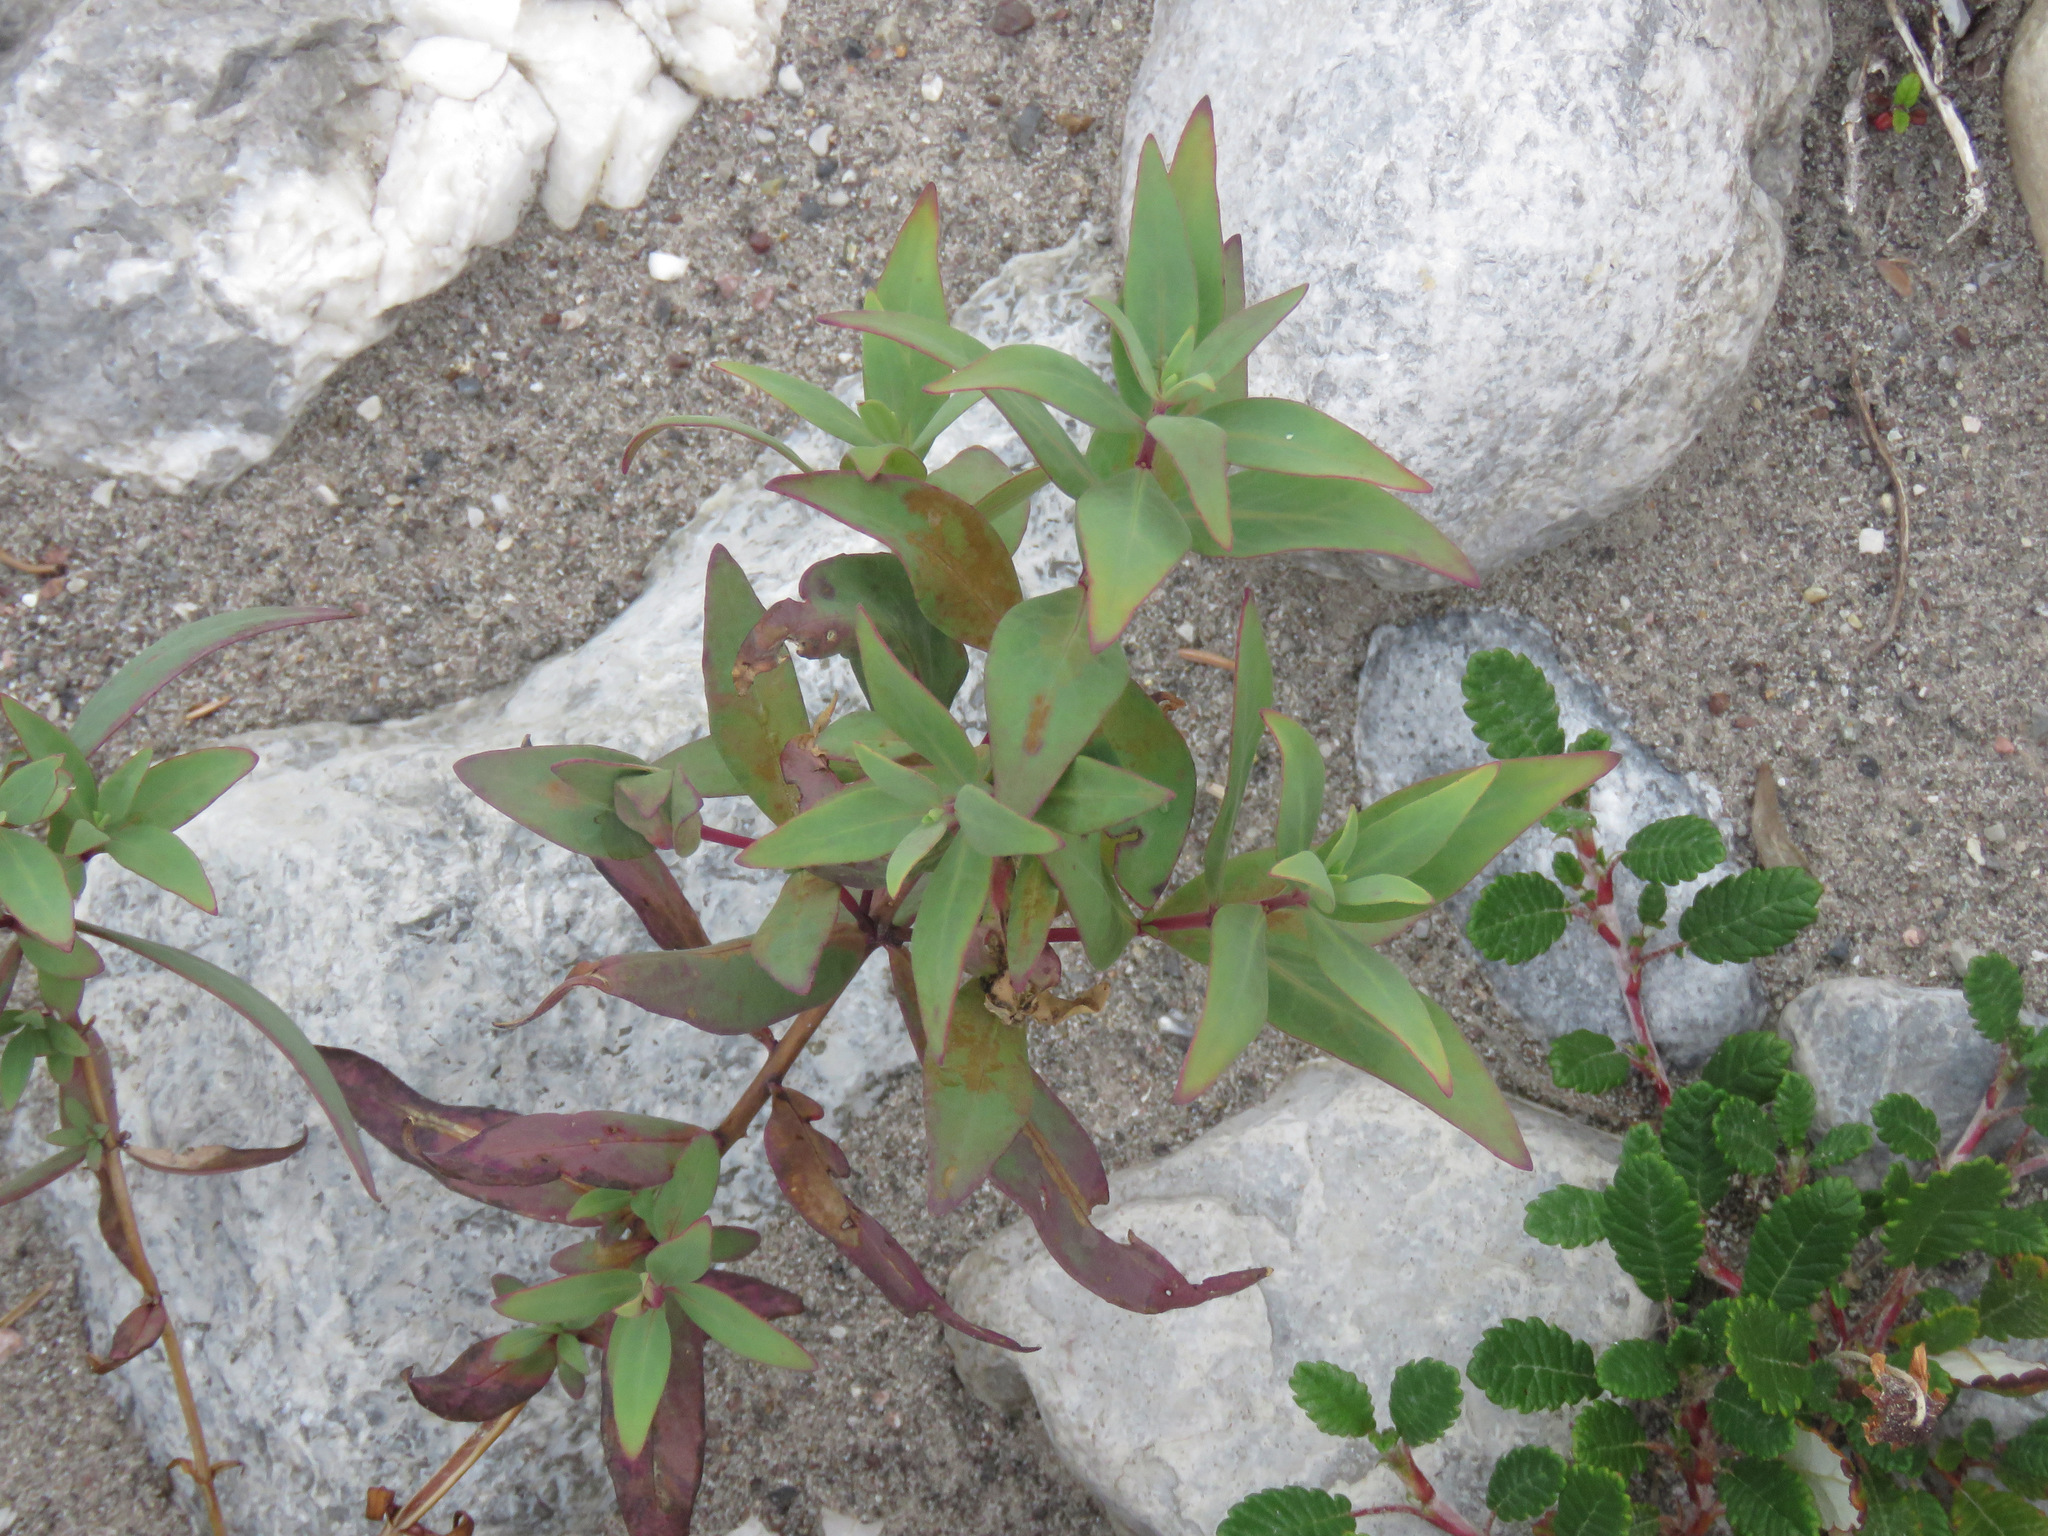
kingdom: Plantae
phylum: Tracheophyta
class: Magnoliopsida
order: Myrtales
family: Onagraceae
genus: Chamaenerion
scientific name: Chamaenerion latifolium
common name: Dwarf fireweed
